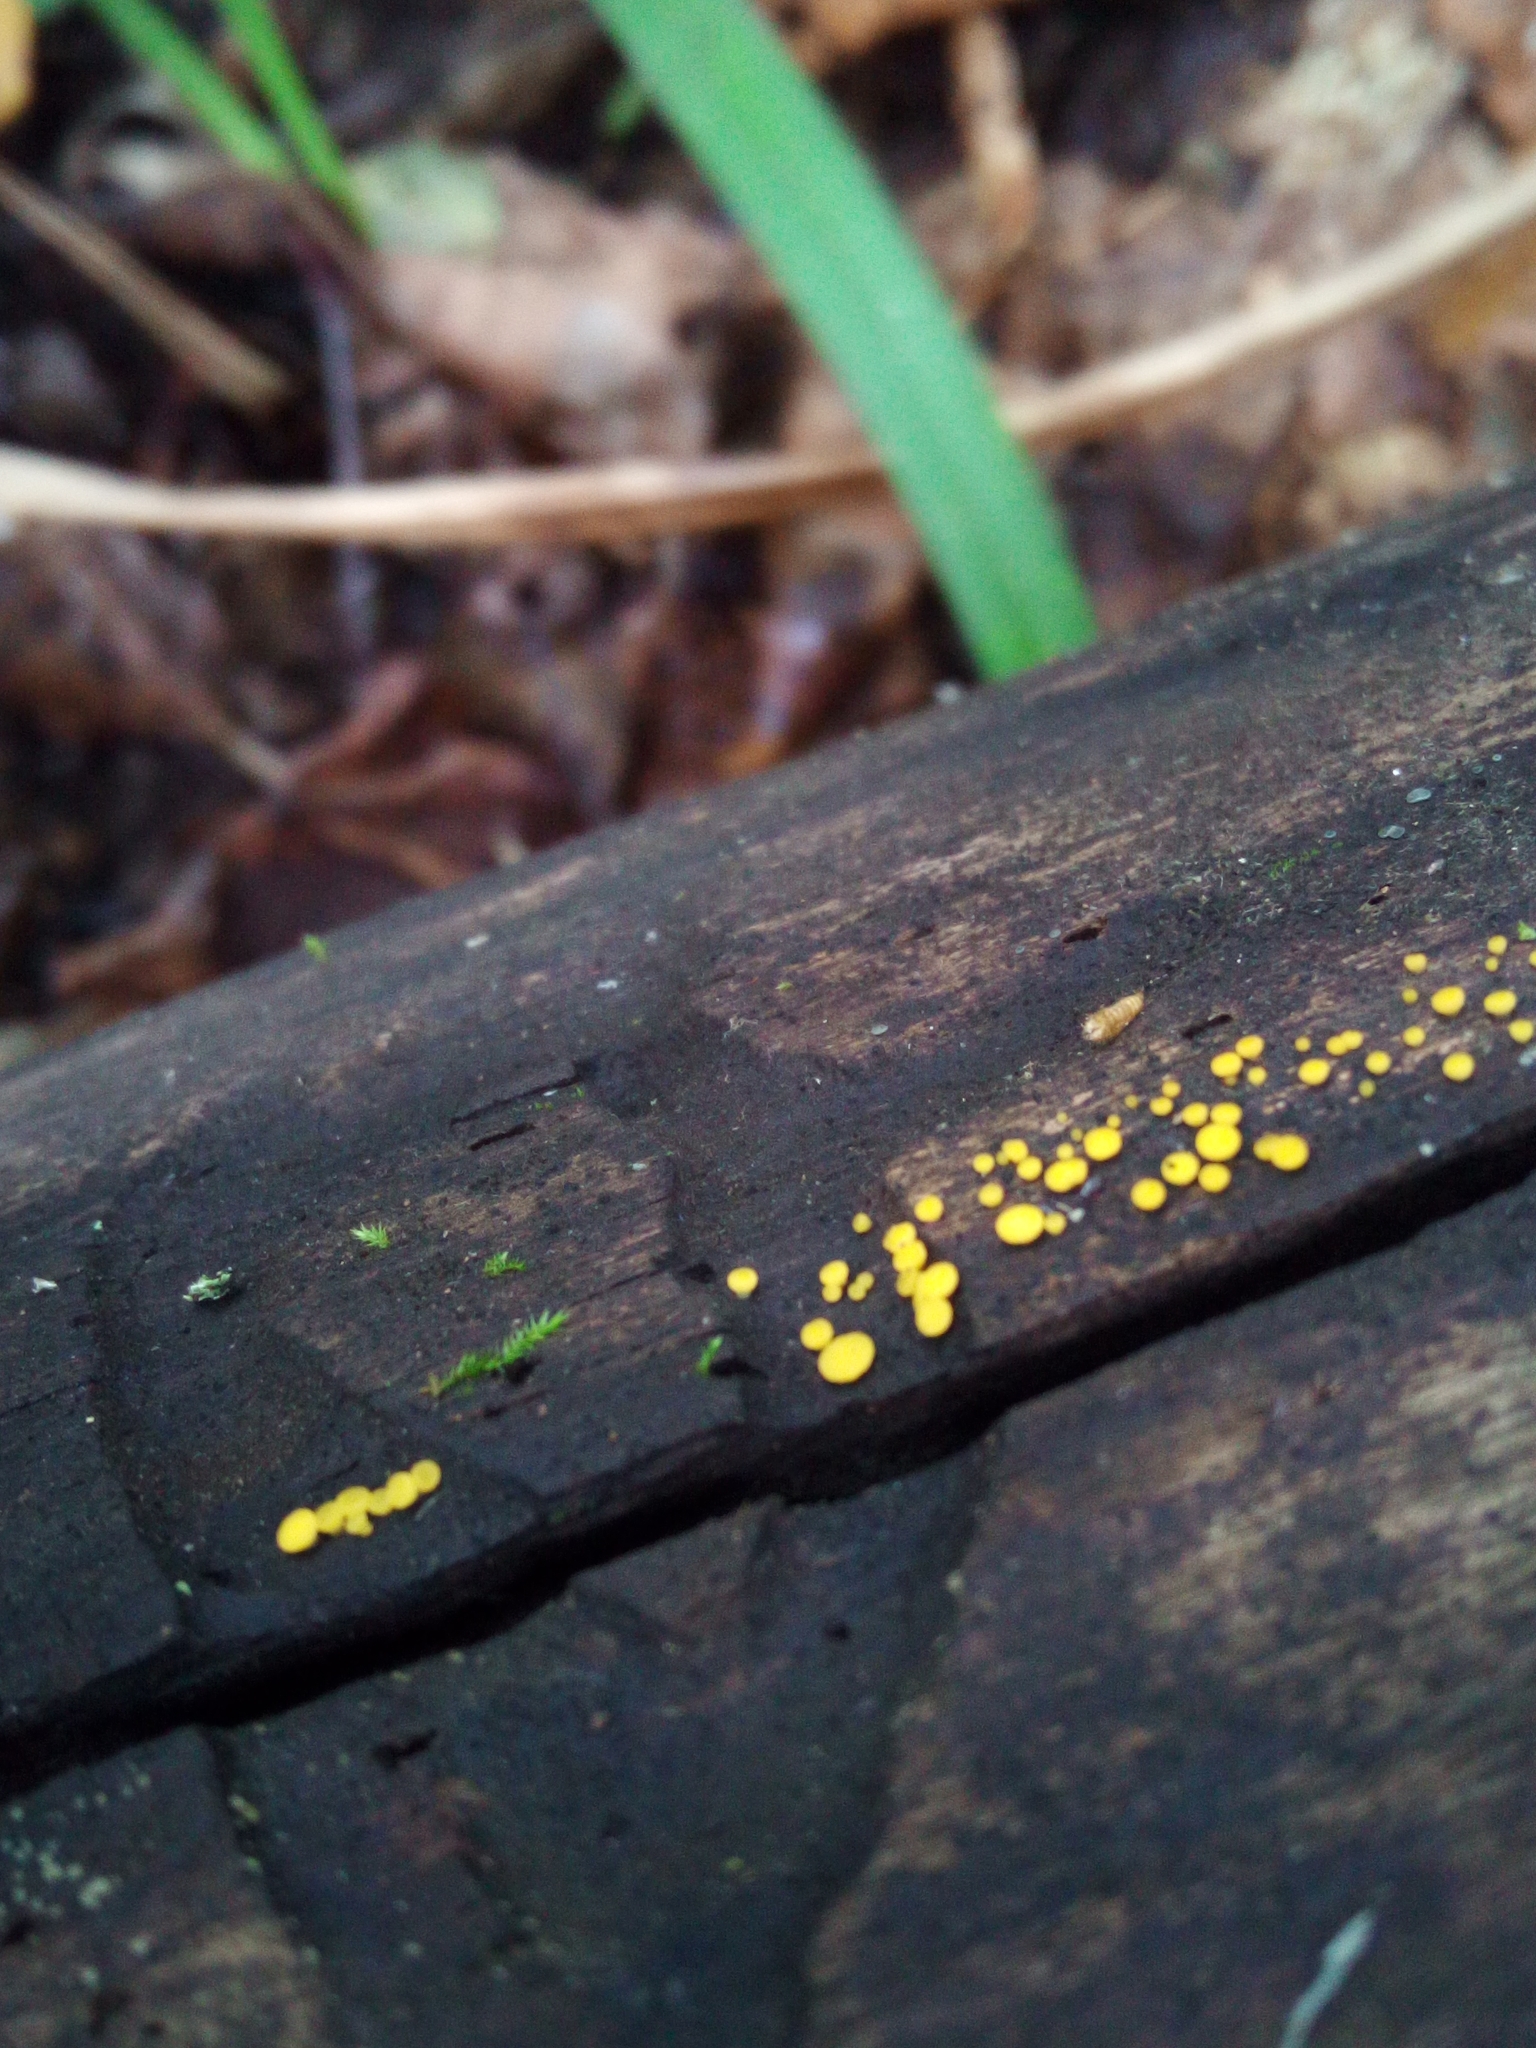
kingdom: Fungi
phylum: Ascomycota
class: Leotiomycetes
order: Helotiales
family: Pezizellaceae
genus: Calycina
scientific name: Calycina citrina
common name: Yellow fairy cups
